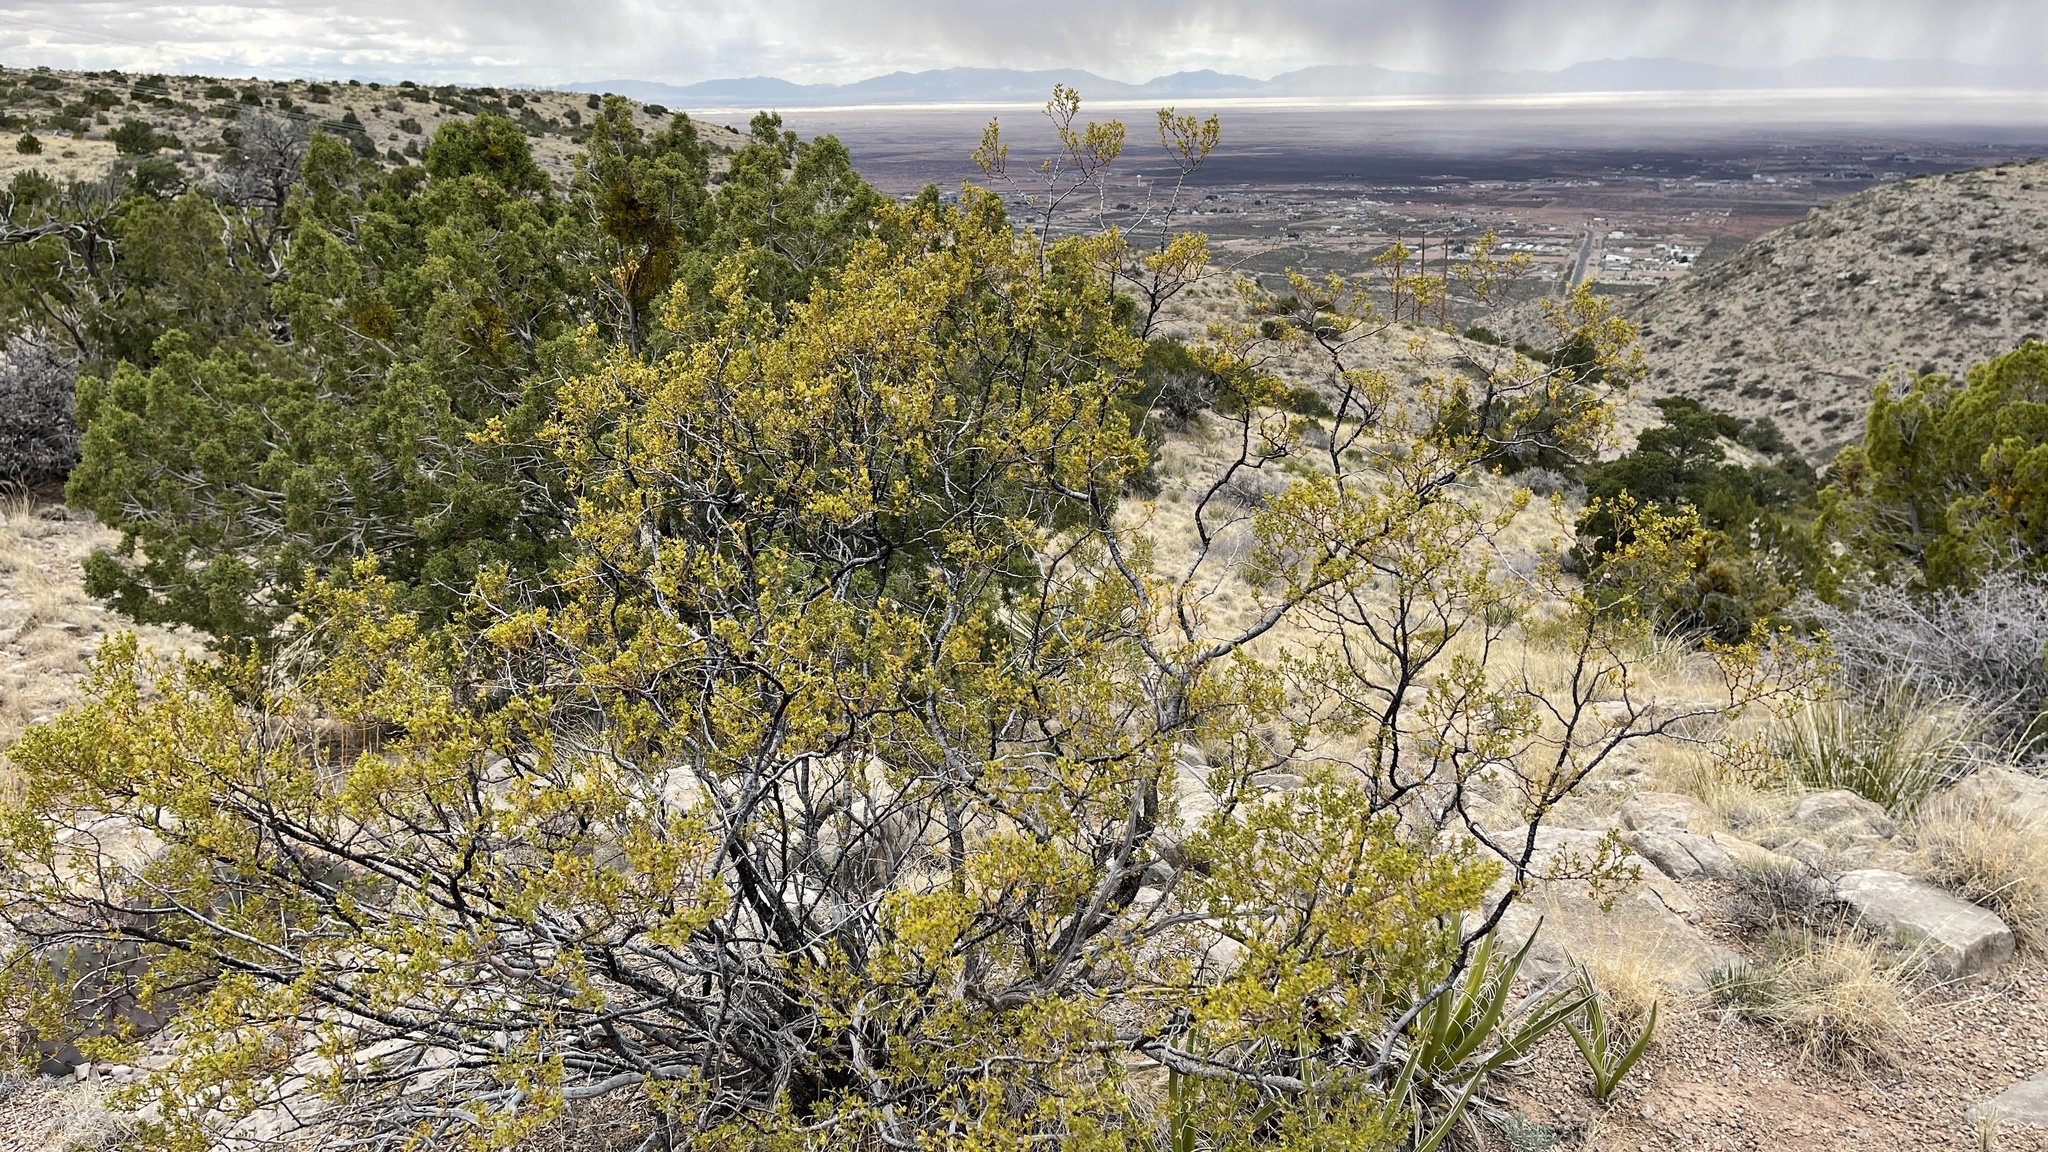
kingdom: Plantae
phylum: Tracheophyta
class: Magnoliopsida
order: Zygophyllales
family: Zygophyllaceae
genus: Larrea
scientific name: Larrea tridentata
